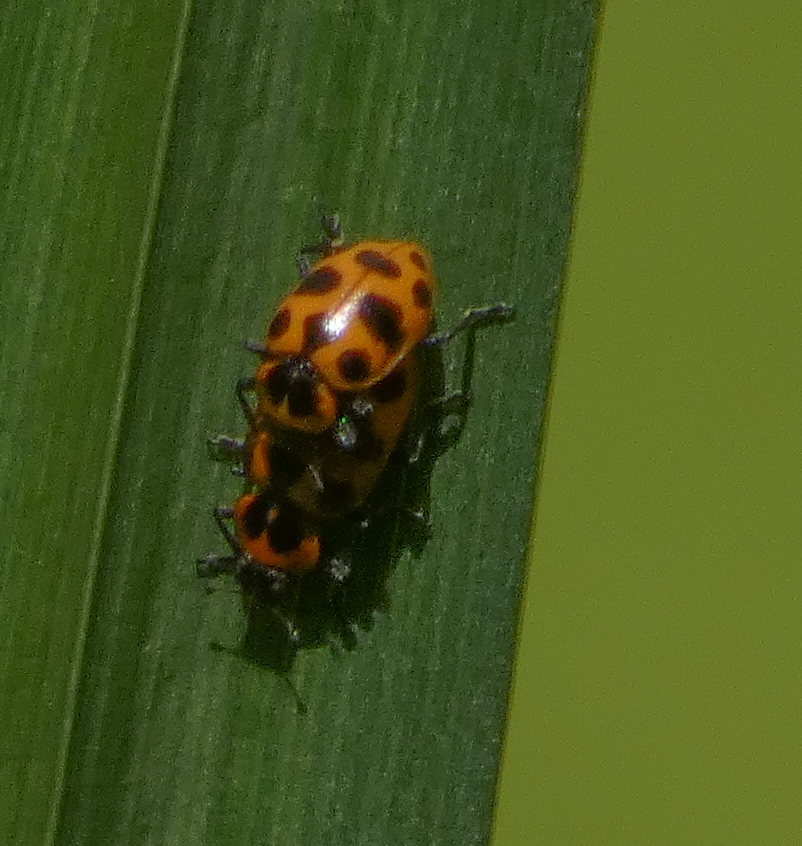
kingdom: Animalia
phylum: Arthropoda
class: Insecta
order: Coleoptera
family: Coccinellidae
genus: Coleomegilla
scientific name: Coleomegilla maculata
